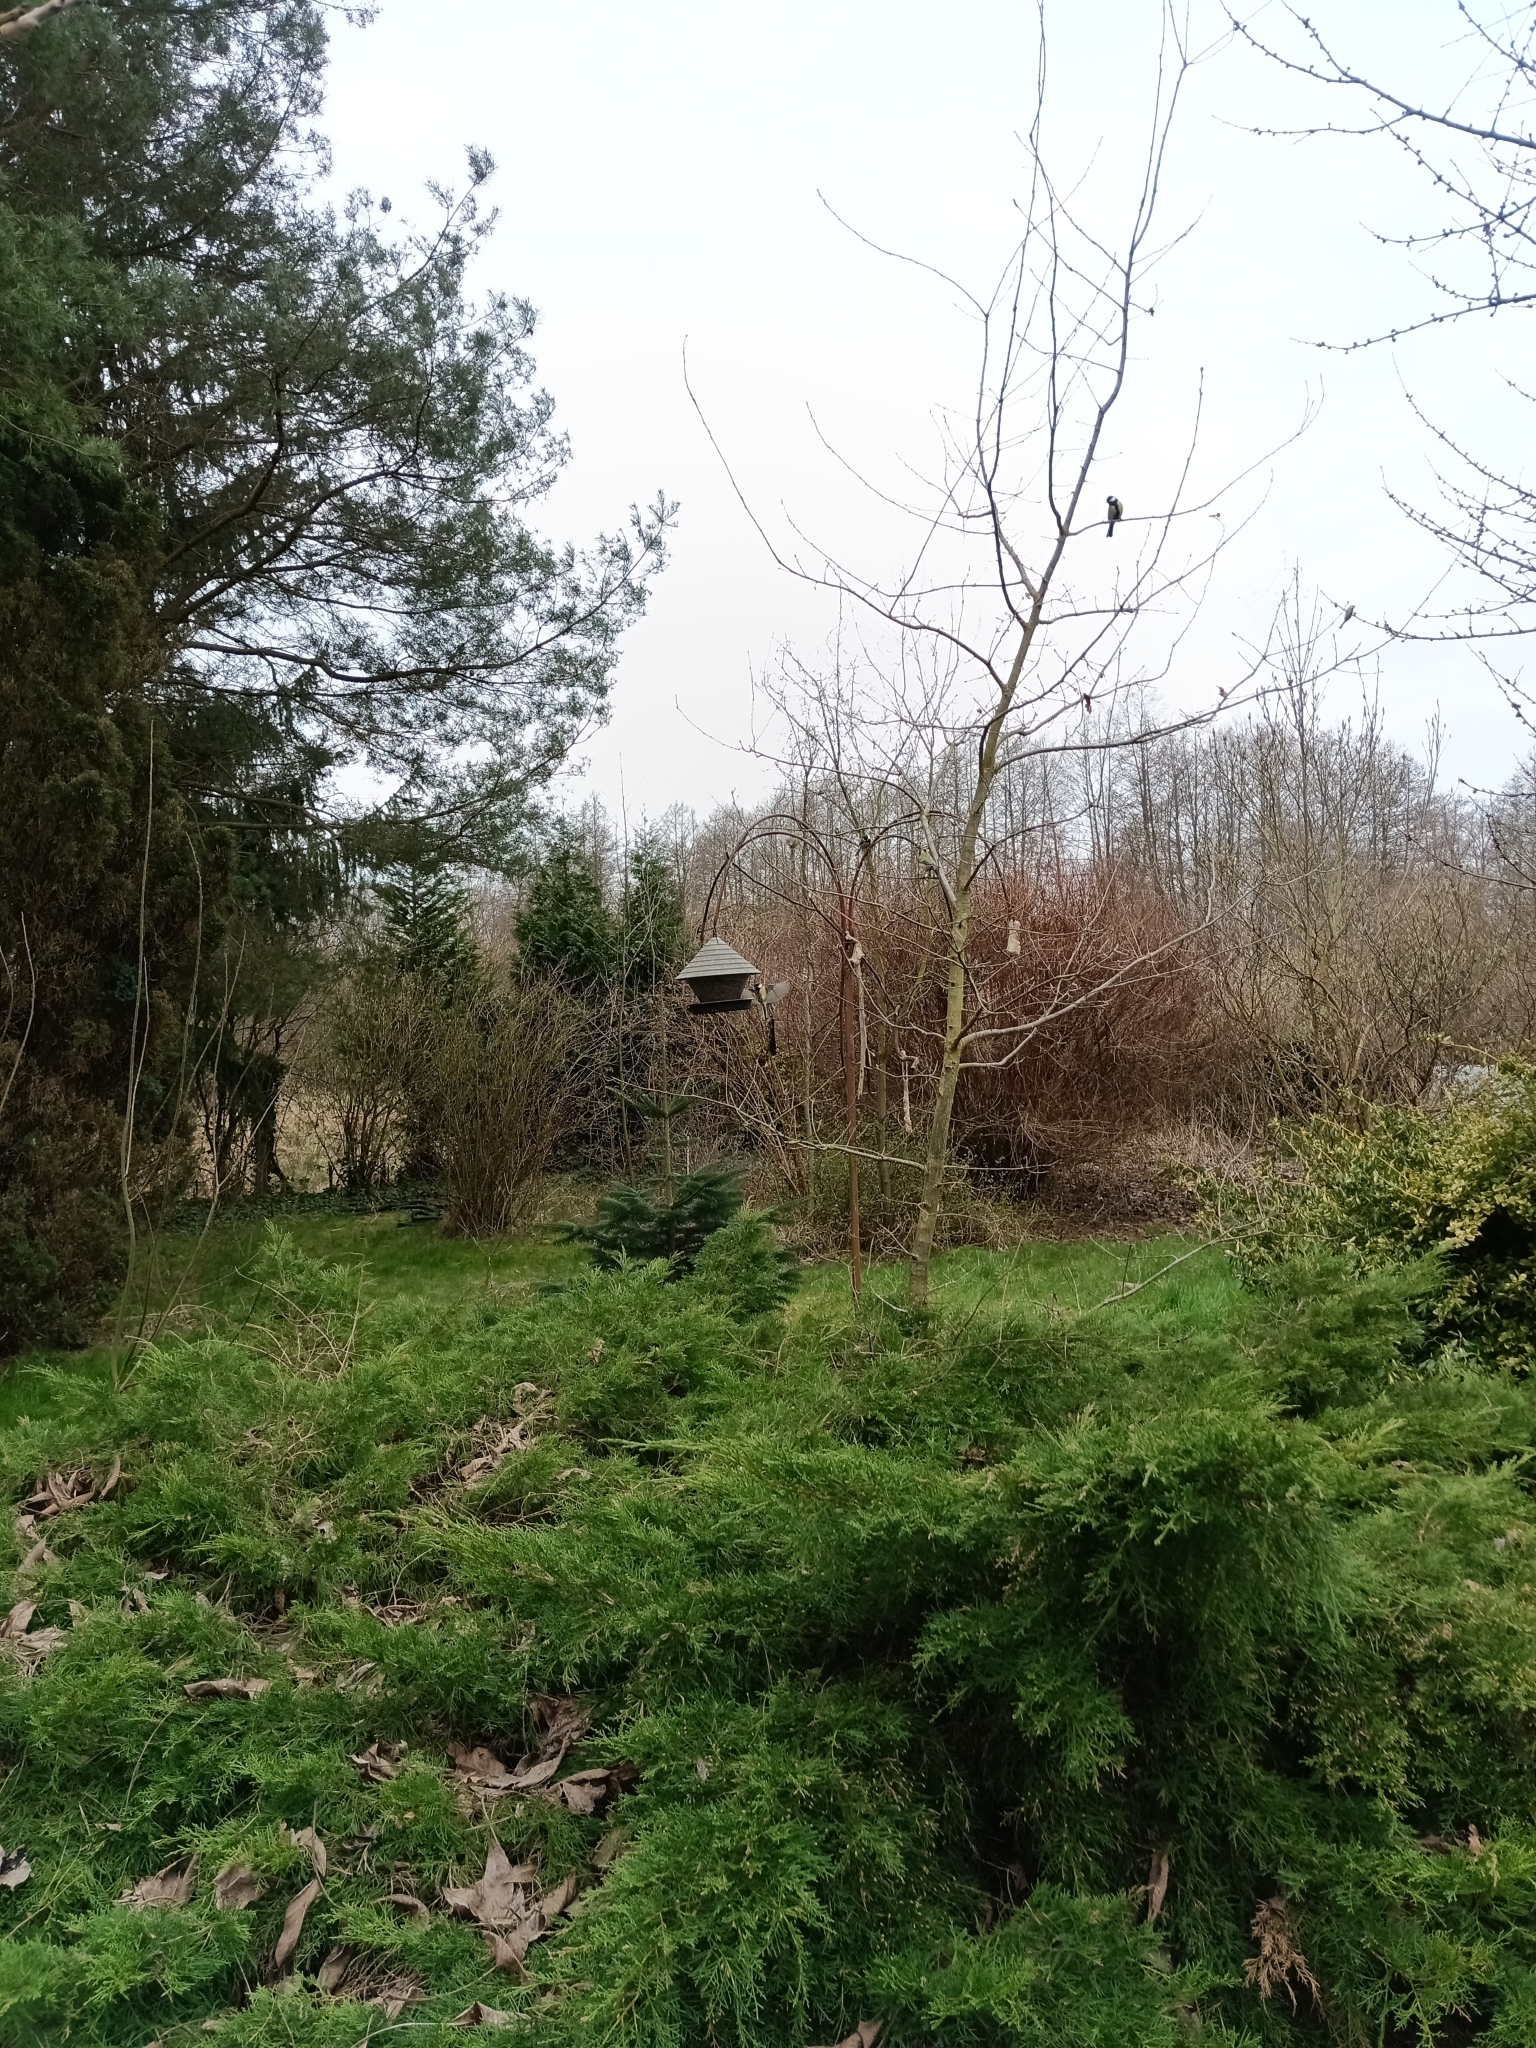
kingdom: Animalia
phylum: Chordata
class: Aves
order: Passeriformes
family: Paridae
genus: Parus
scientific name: Parus major
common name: Great tit
